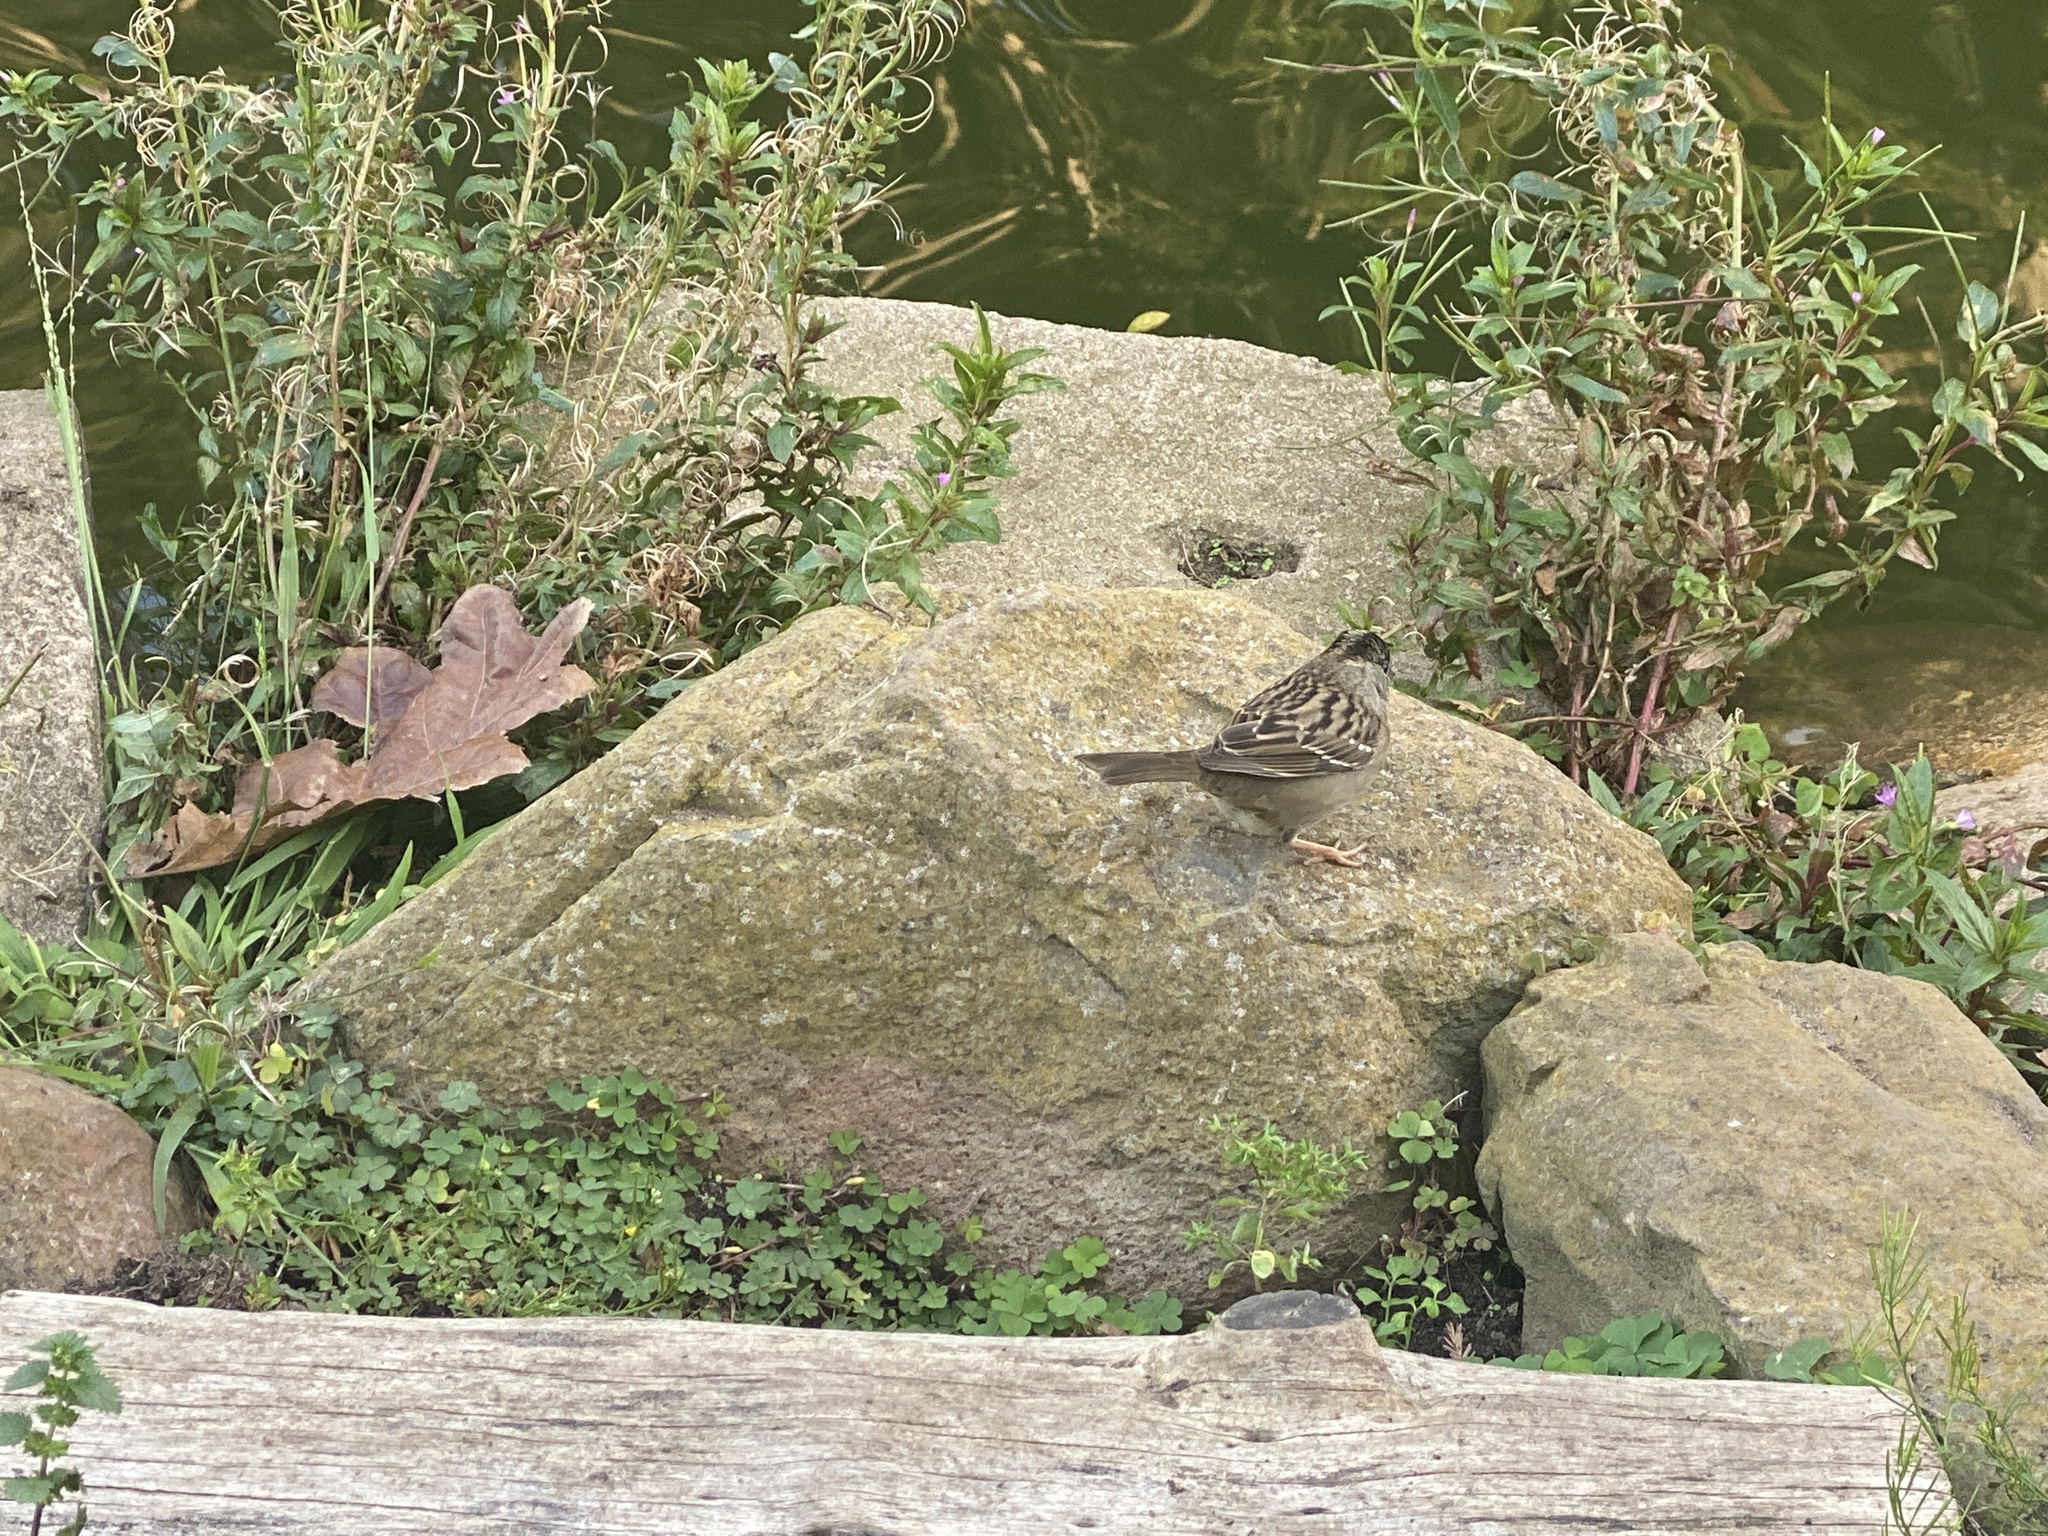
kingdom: Animalia
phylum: Chordata
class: Aves
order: Passeriformes
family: Passerellidae
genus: Zonotrichia
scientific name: Zonotrichia atricapilla
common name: Golden-crowned sparrow
